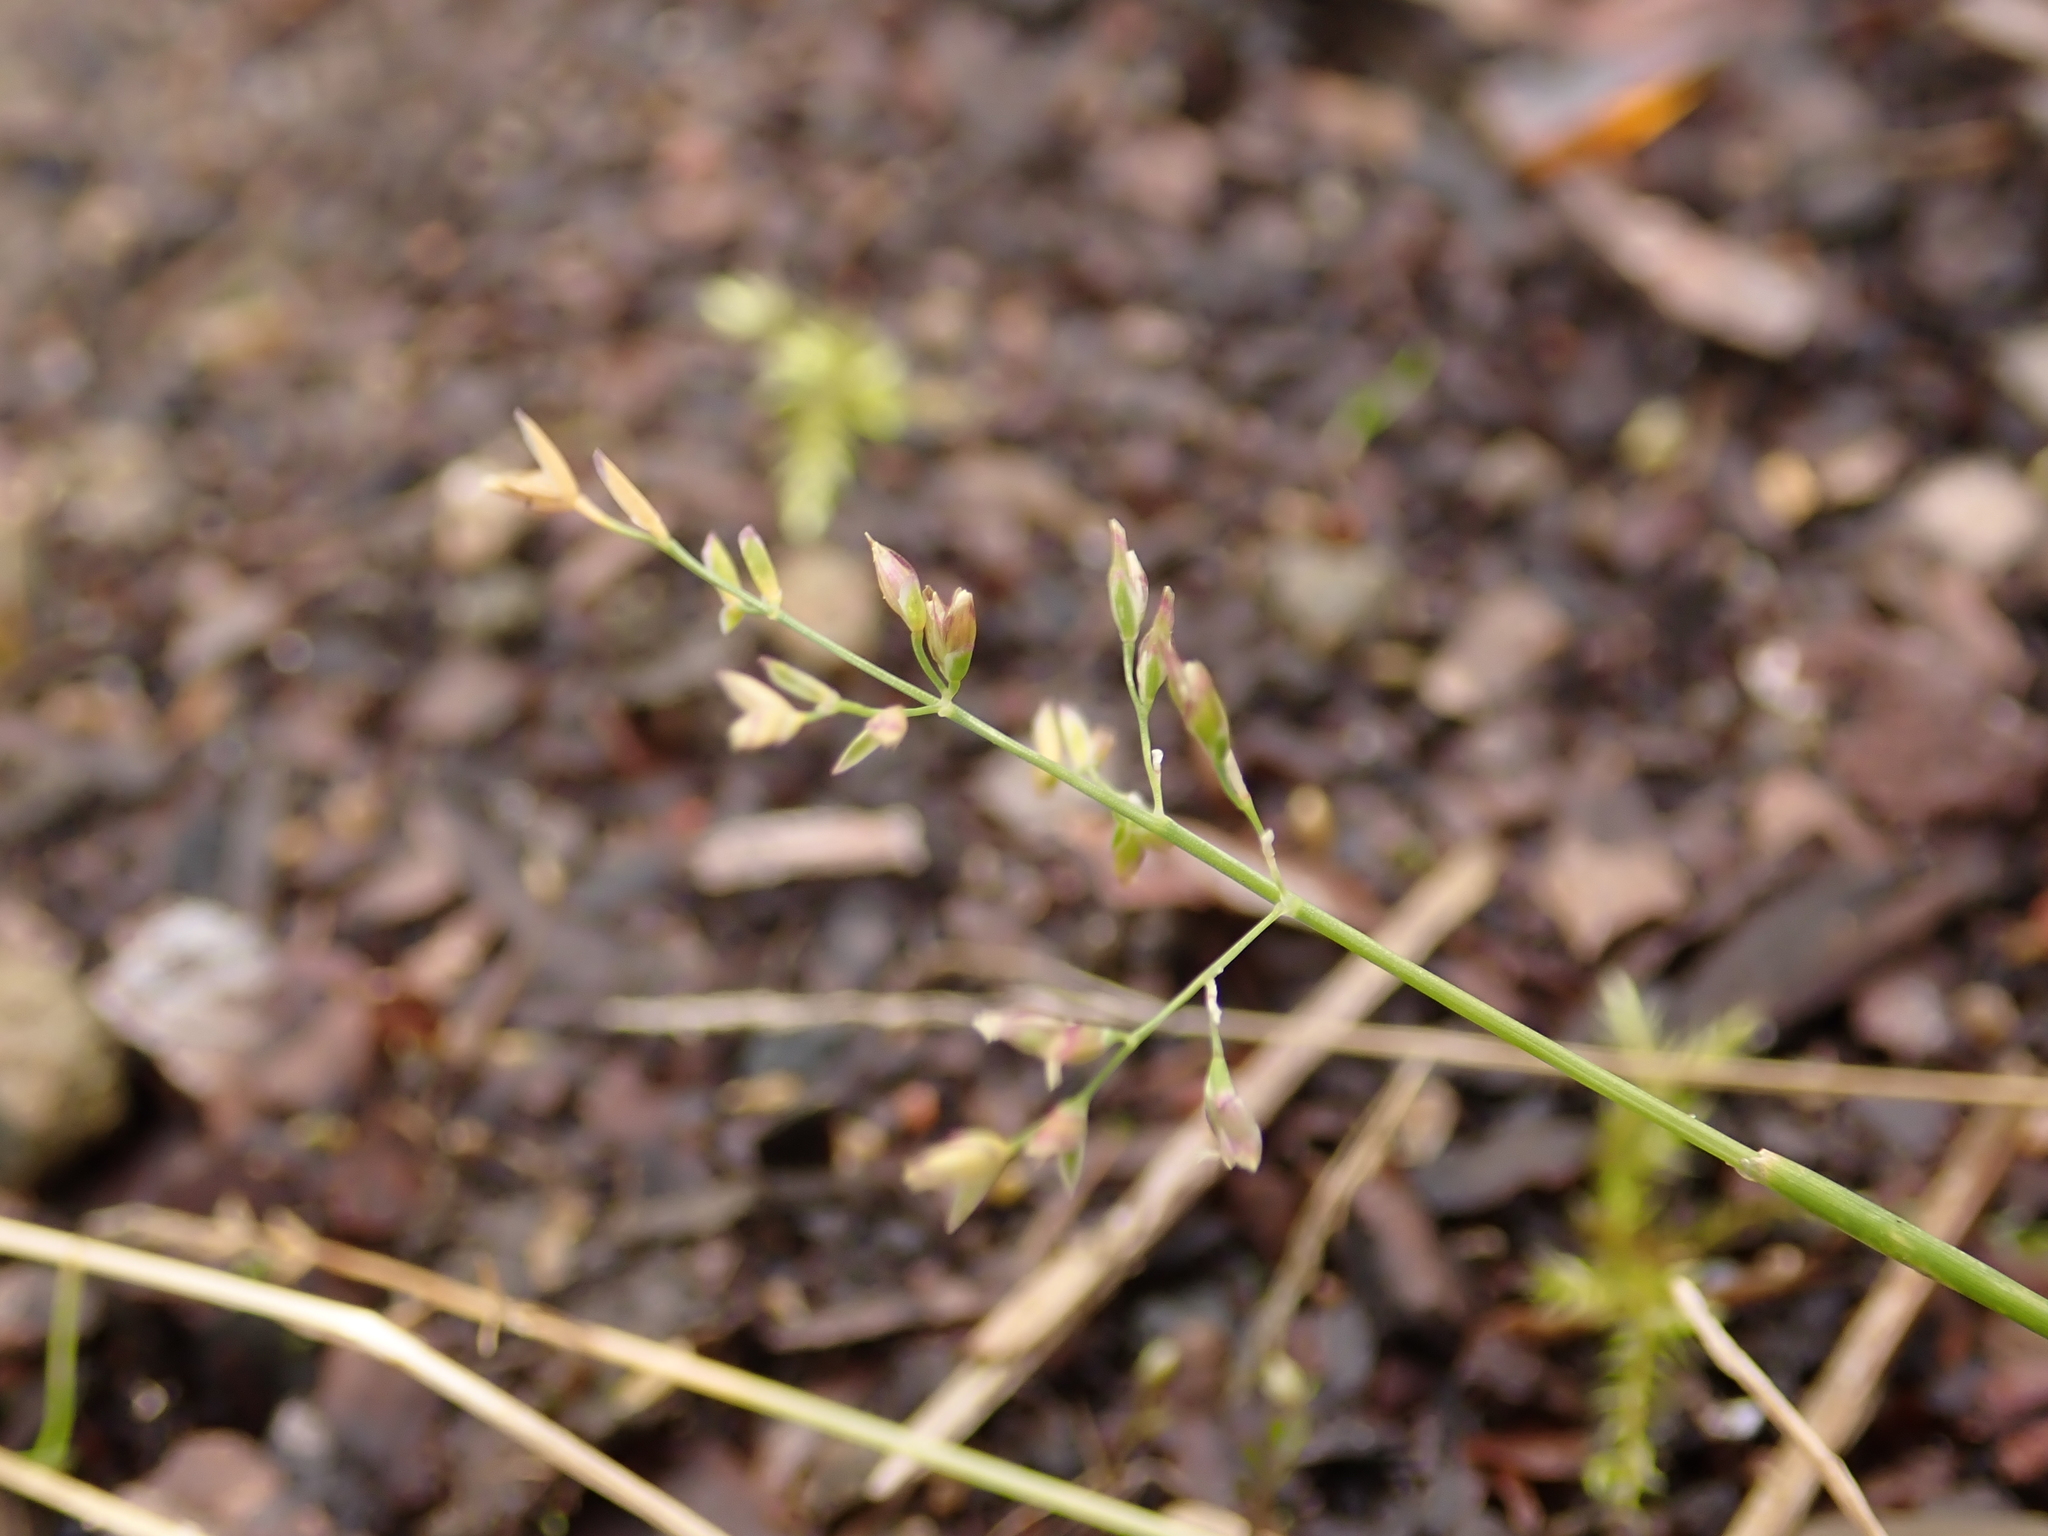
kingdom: Plantae
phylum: Tracheophyta
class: Liliopsida
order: Poales
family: Poaceae
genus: Poa
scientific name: Poa annua
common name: Annual bluegrass
